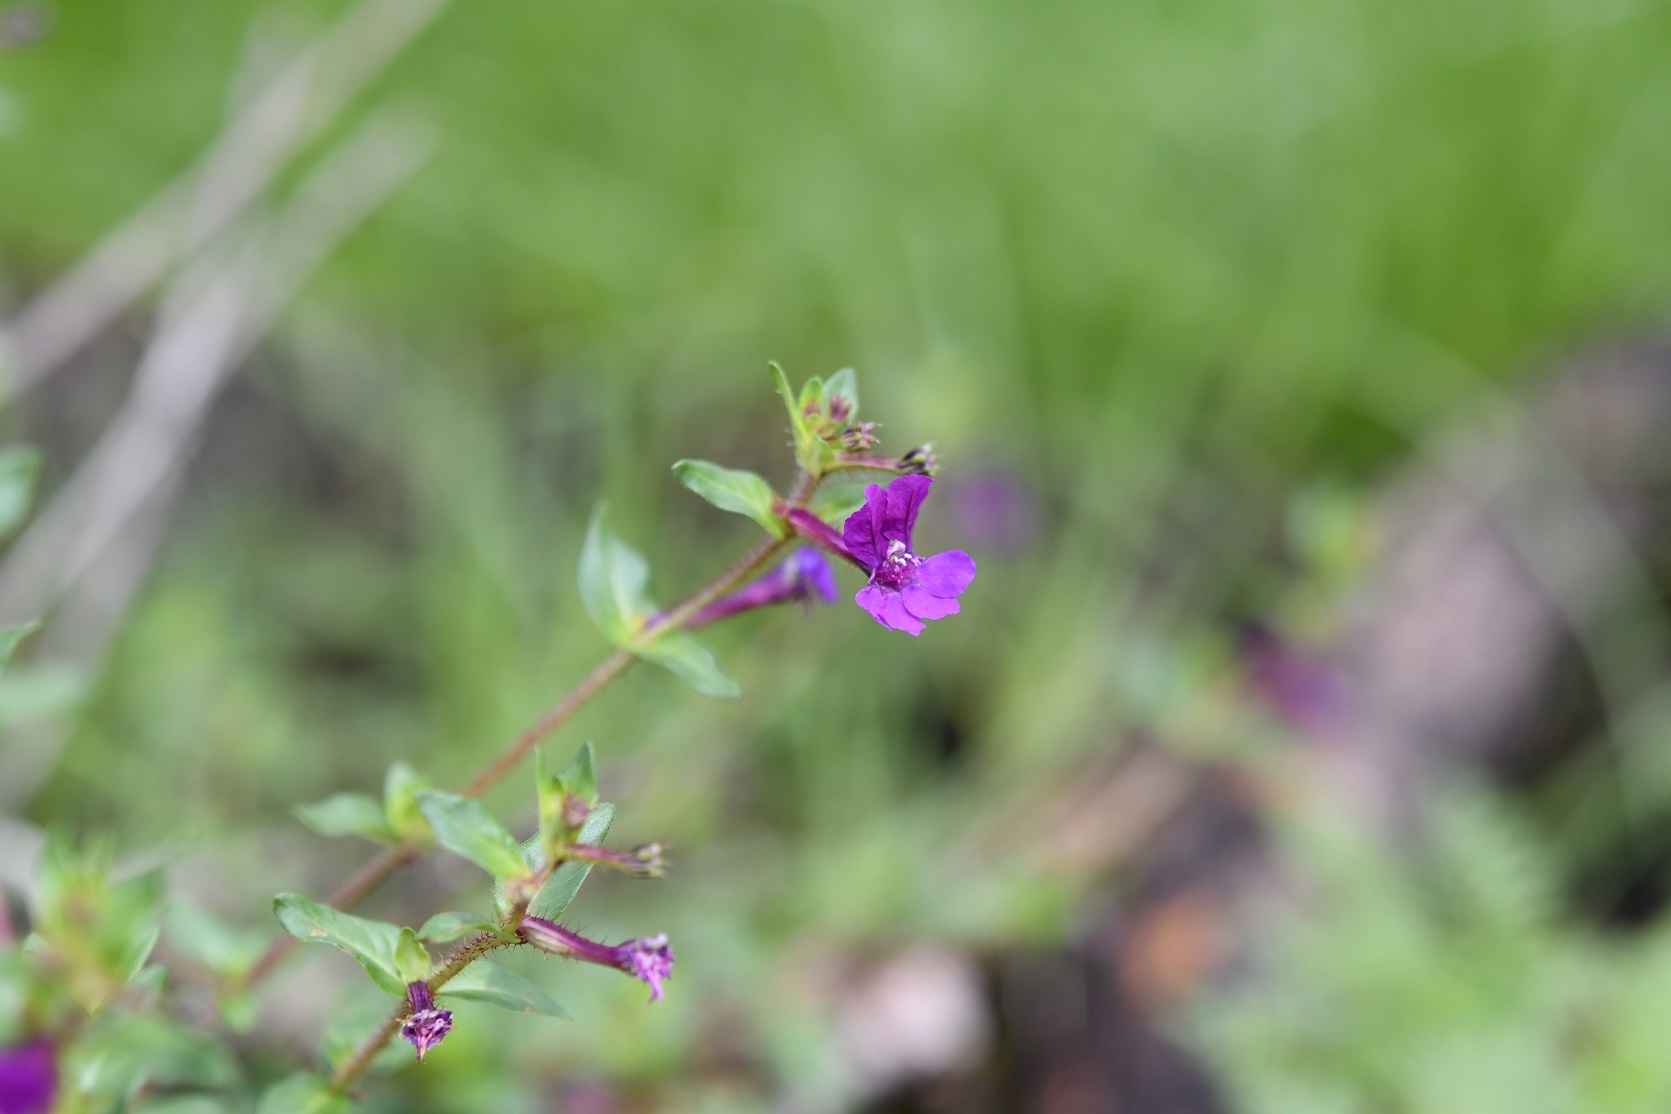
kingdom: Plantae
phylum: Tracheophyta
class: Magnoliopsida
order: Myrtales
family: Lythraceae
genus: Cuphea
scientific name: Cuphea aequipetala
